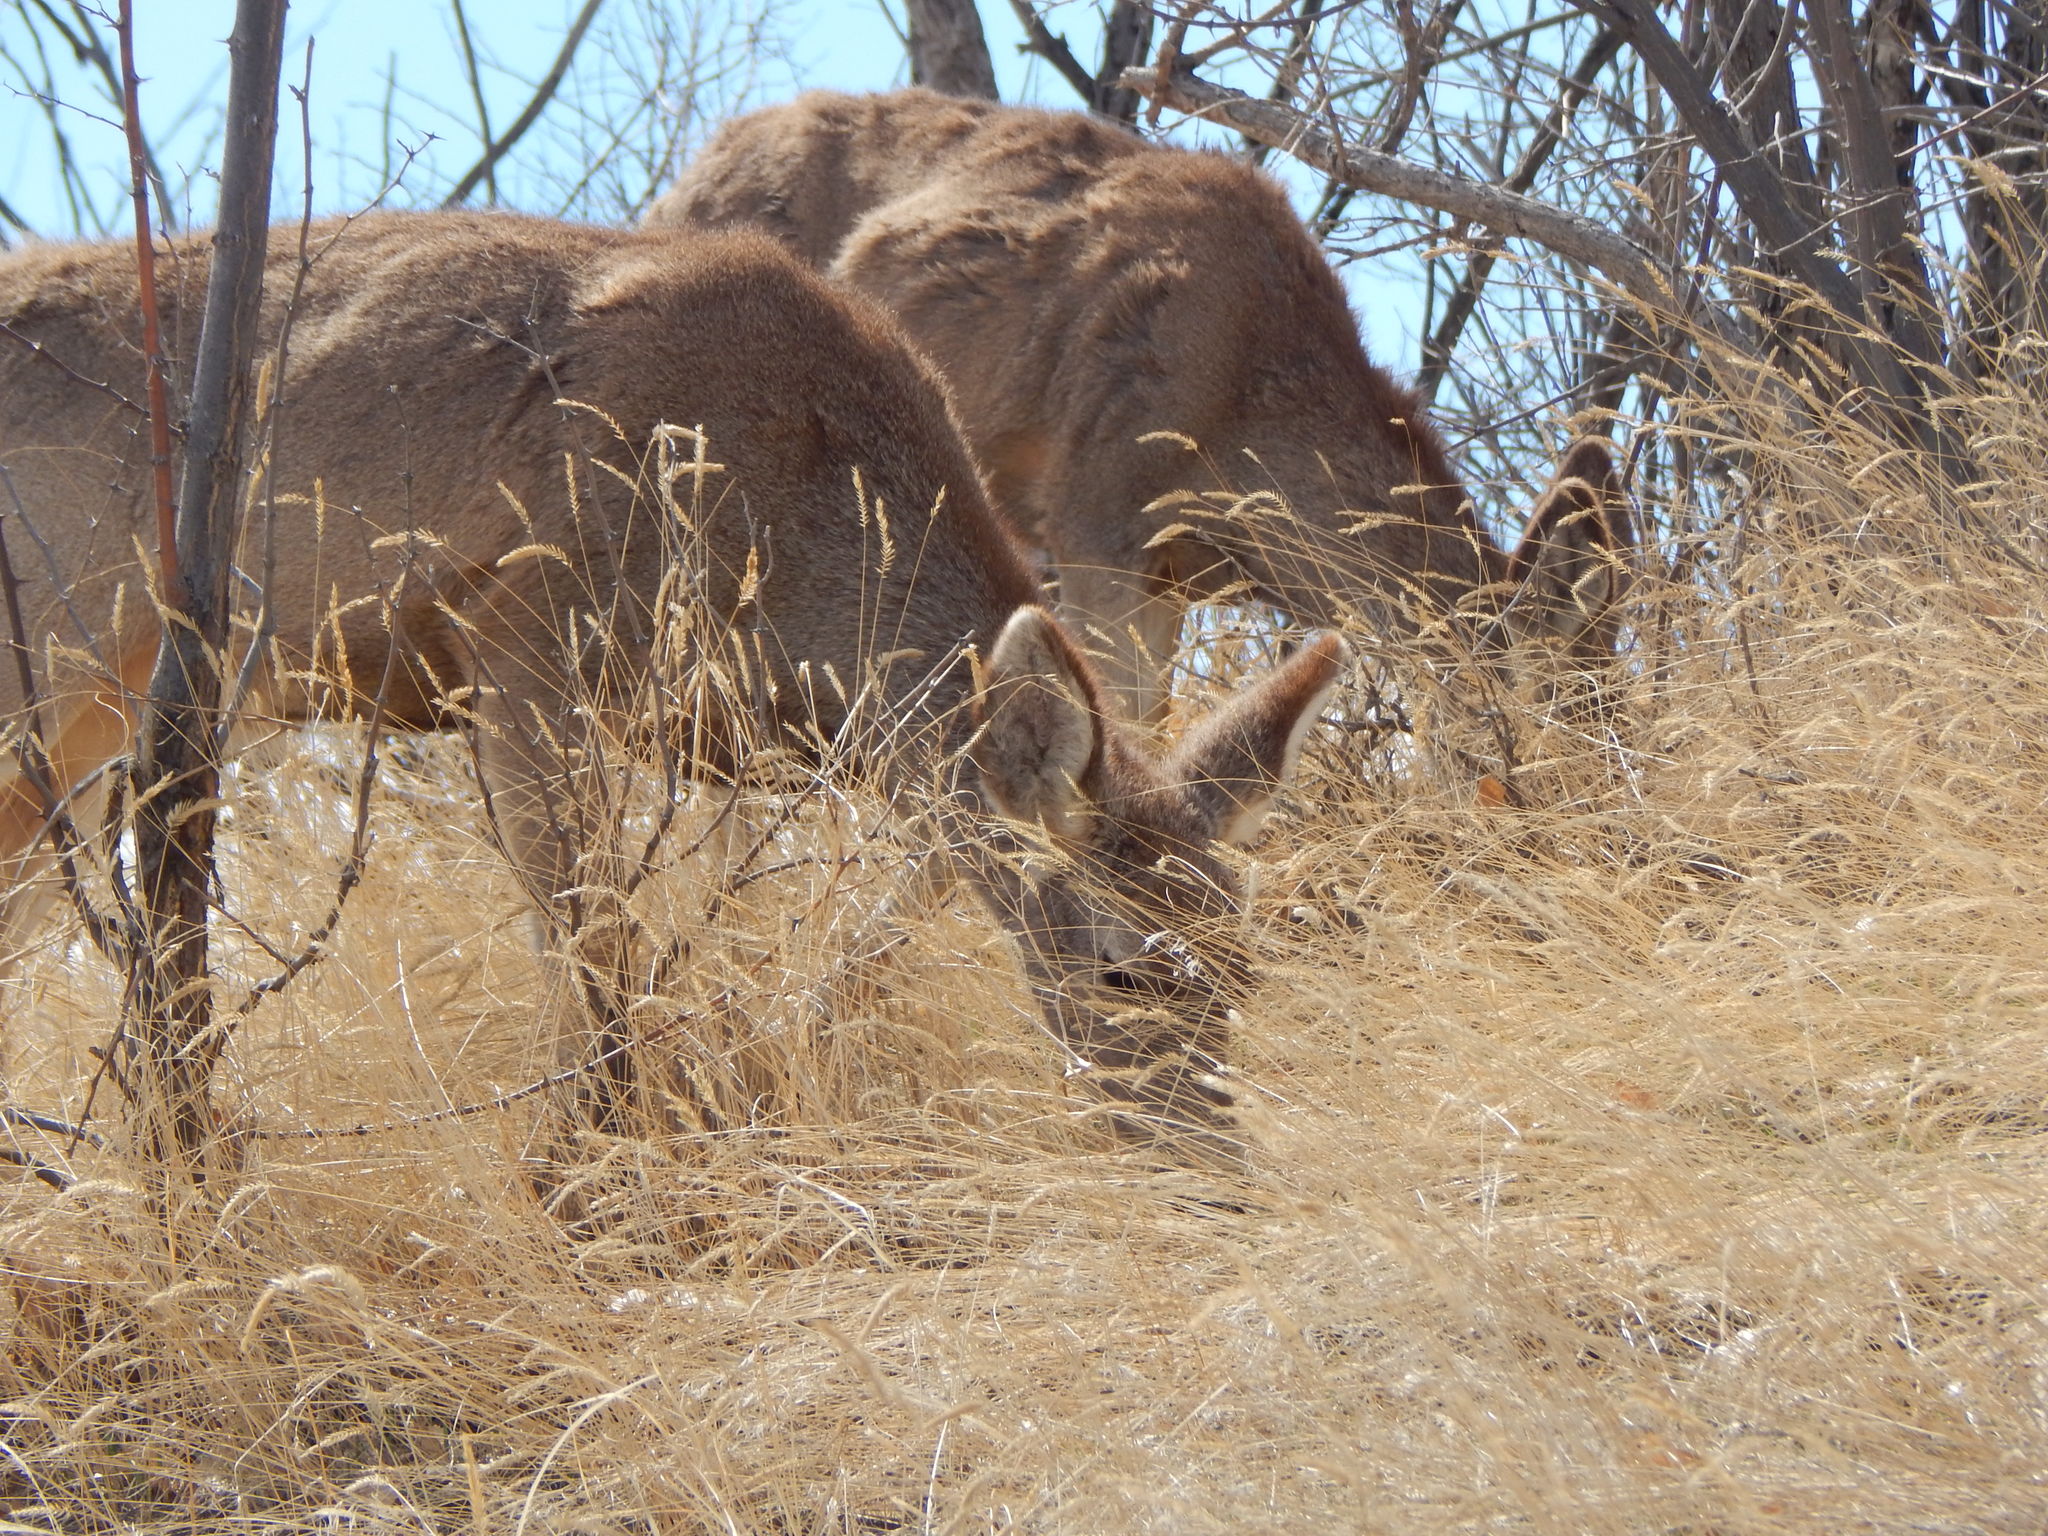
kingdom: Animalia
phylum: Chordata
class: Mammalia
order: Artiodactyla
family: Cervidae
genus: Odocoileus
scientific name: Odocoileus hemionus
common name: Mule deer
